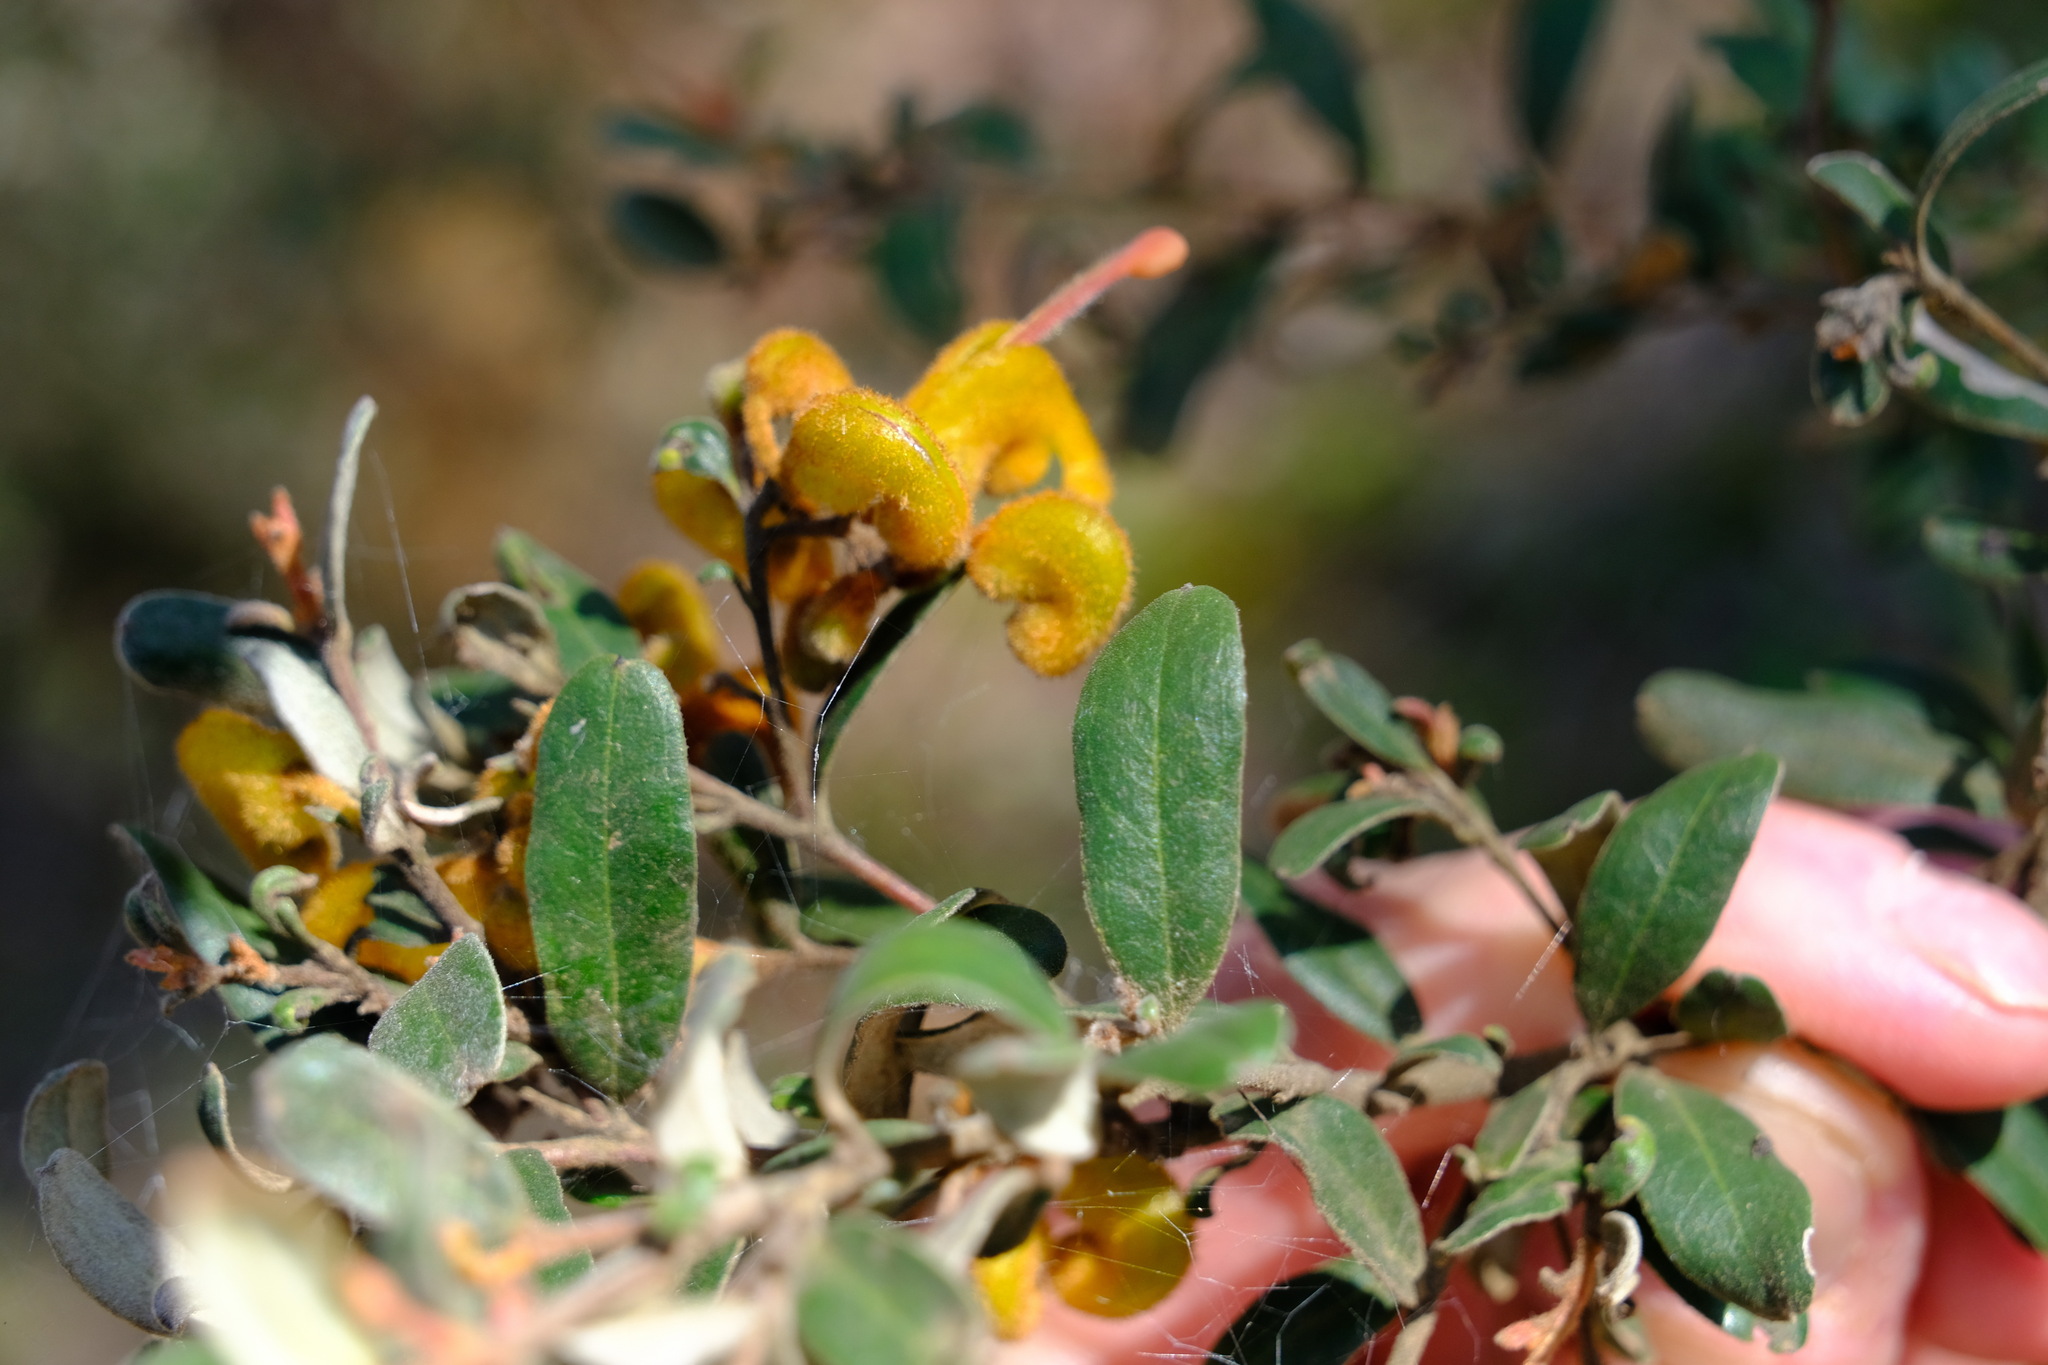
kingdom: Plantae
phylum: Tracheophyta
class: Magnoliopsida
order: Proteales
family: Proteaceae
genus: Grevillea
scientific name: Grevillea chrysophaea
